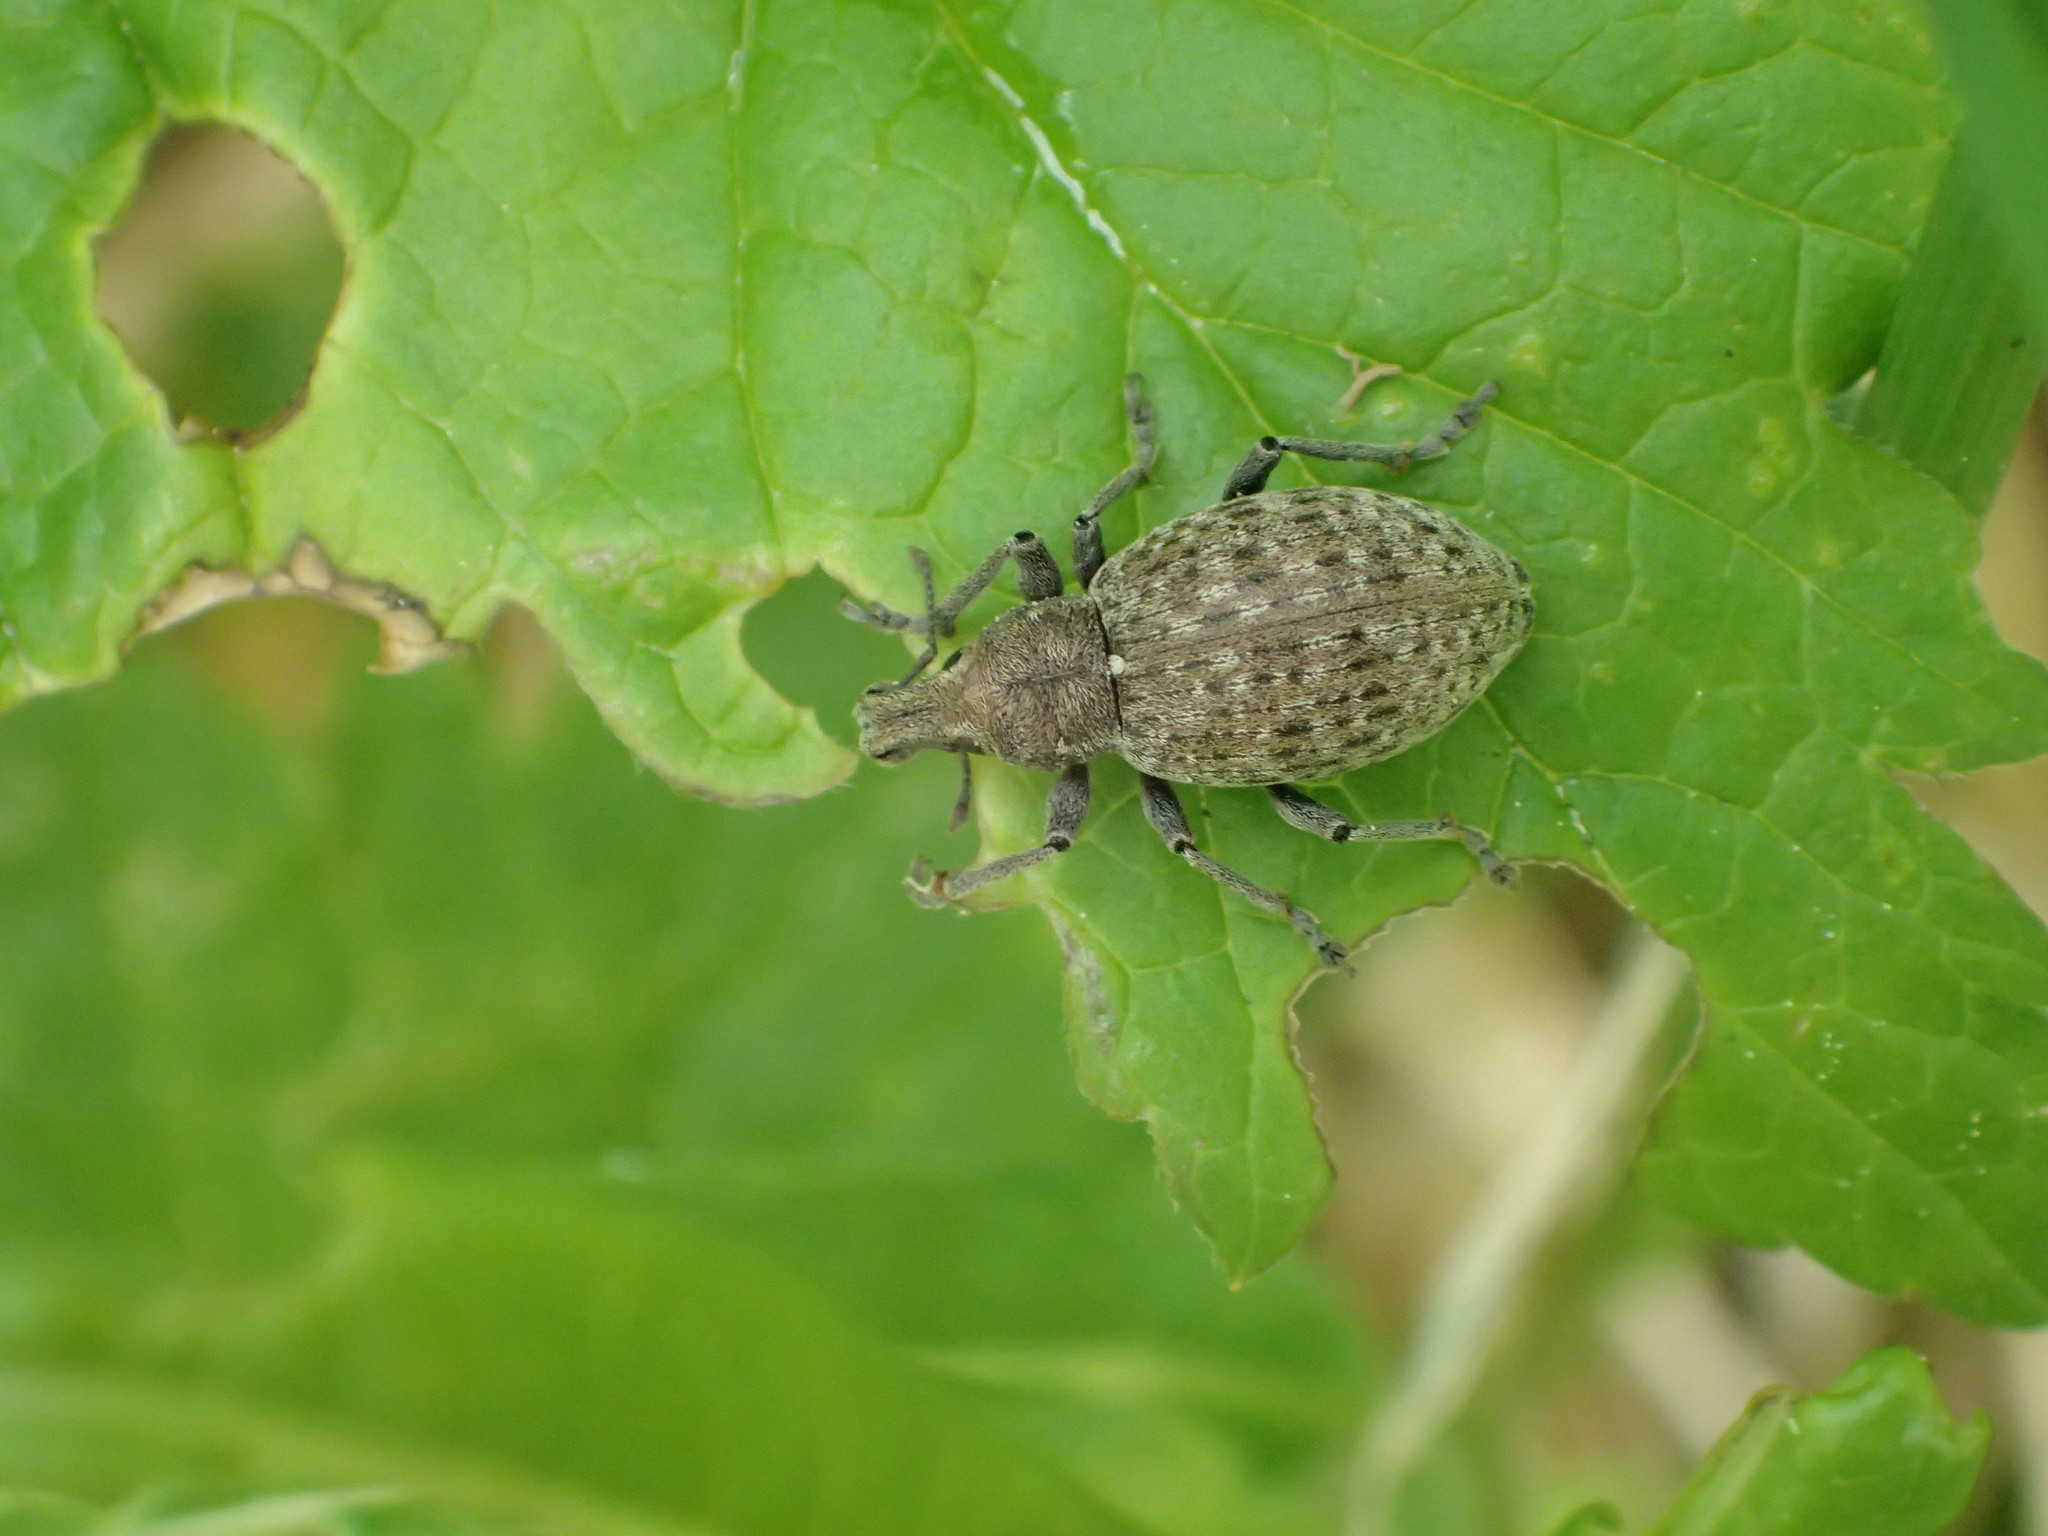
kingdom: Animalia
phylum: Arthropoda
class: Insecta
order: Coleoptera
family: Curculionidae
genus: Trichalophus
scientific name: Trichalophus alternatus
